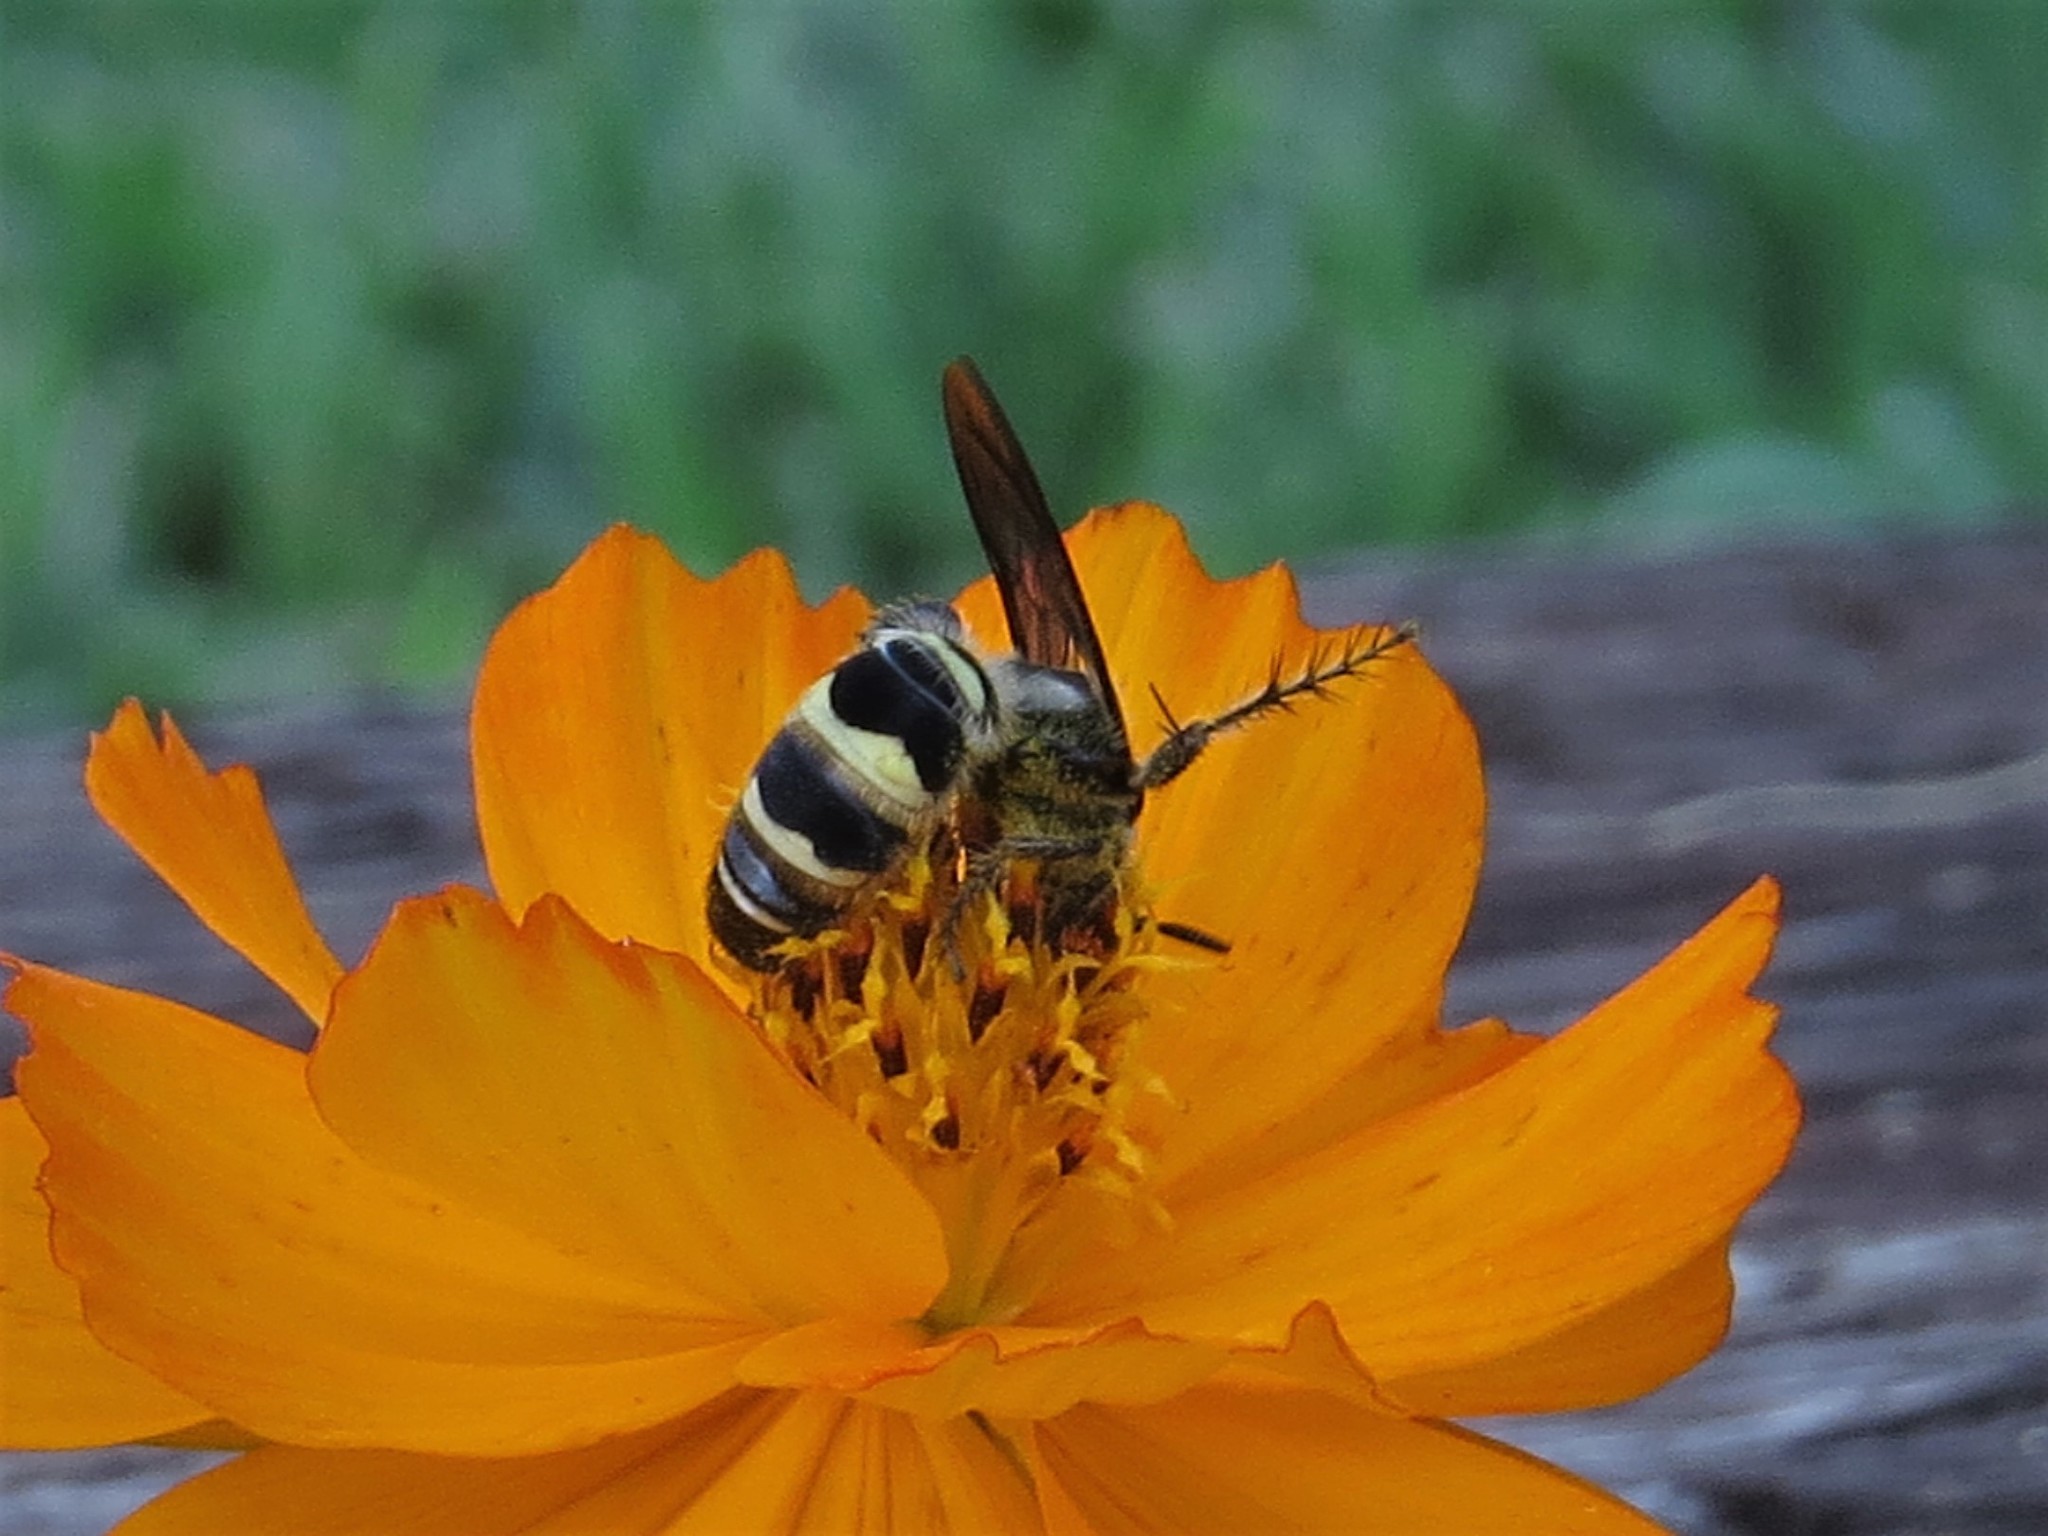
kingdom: Animalia
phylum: Arthropoda
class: Insecta
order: Hymenoptera
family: Scoliidae
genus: Dielis
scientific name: Dielis
